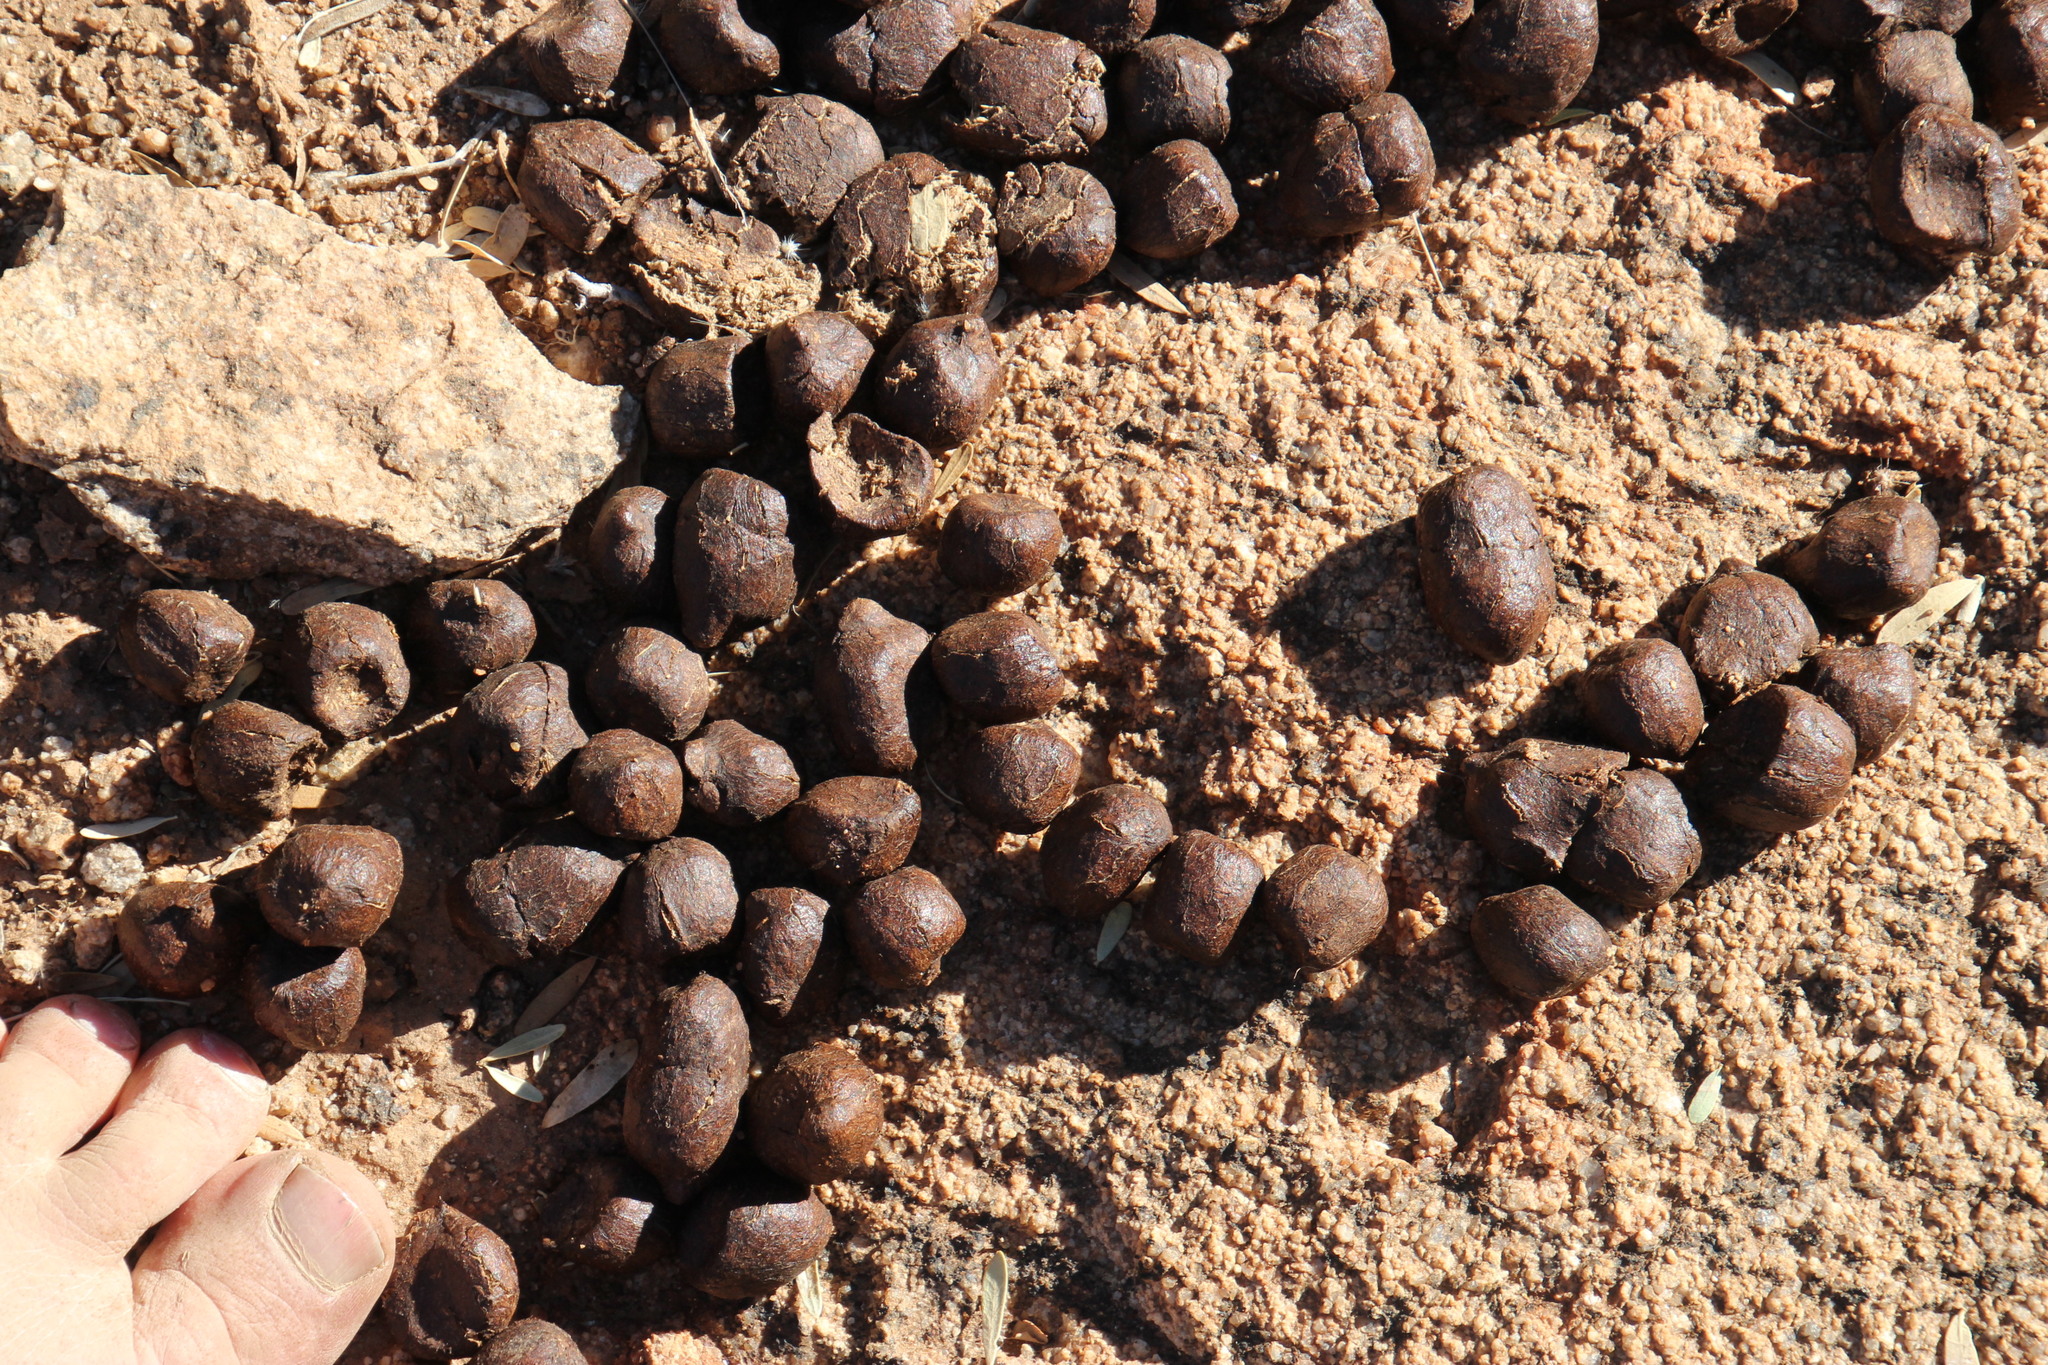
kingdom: Animalia
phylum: Chordata
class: Mammalia
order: Artiodactyla
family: Giraffidae
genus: Giraffa
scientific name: Giraffa giraffa
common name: Southern giraffe
